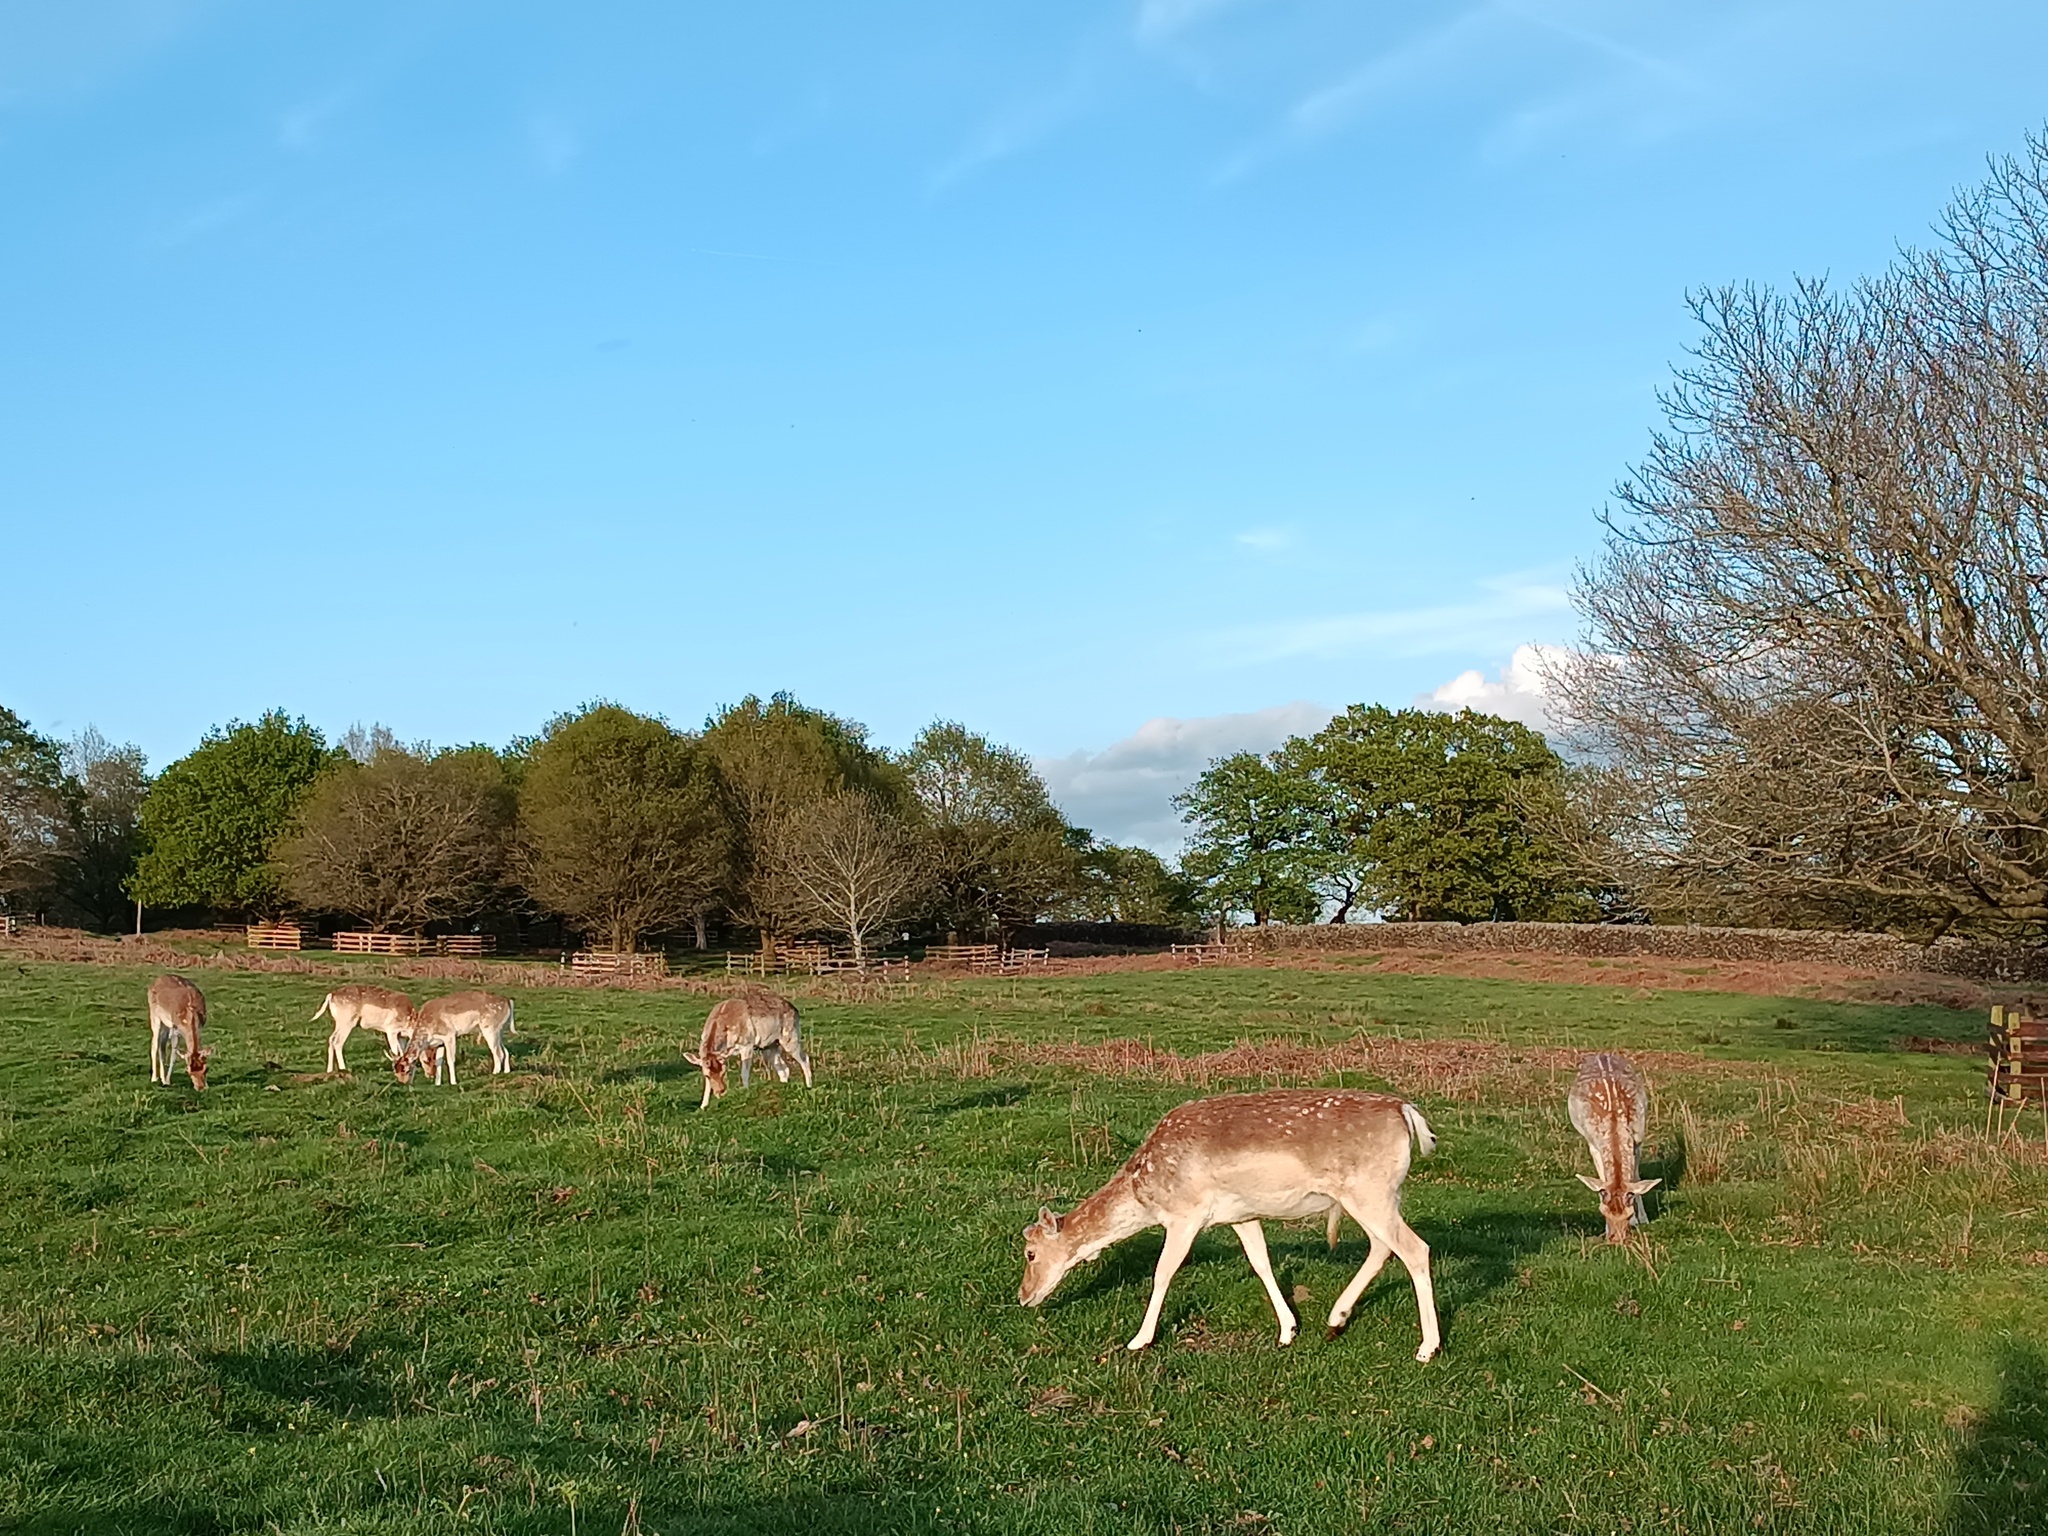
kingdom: Animalia
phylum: Chordata
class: Mammalia
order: Artiodactyla
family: Cervidae
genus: Dama
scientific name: Dama dama
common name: Fallow deer
